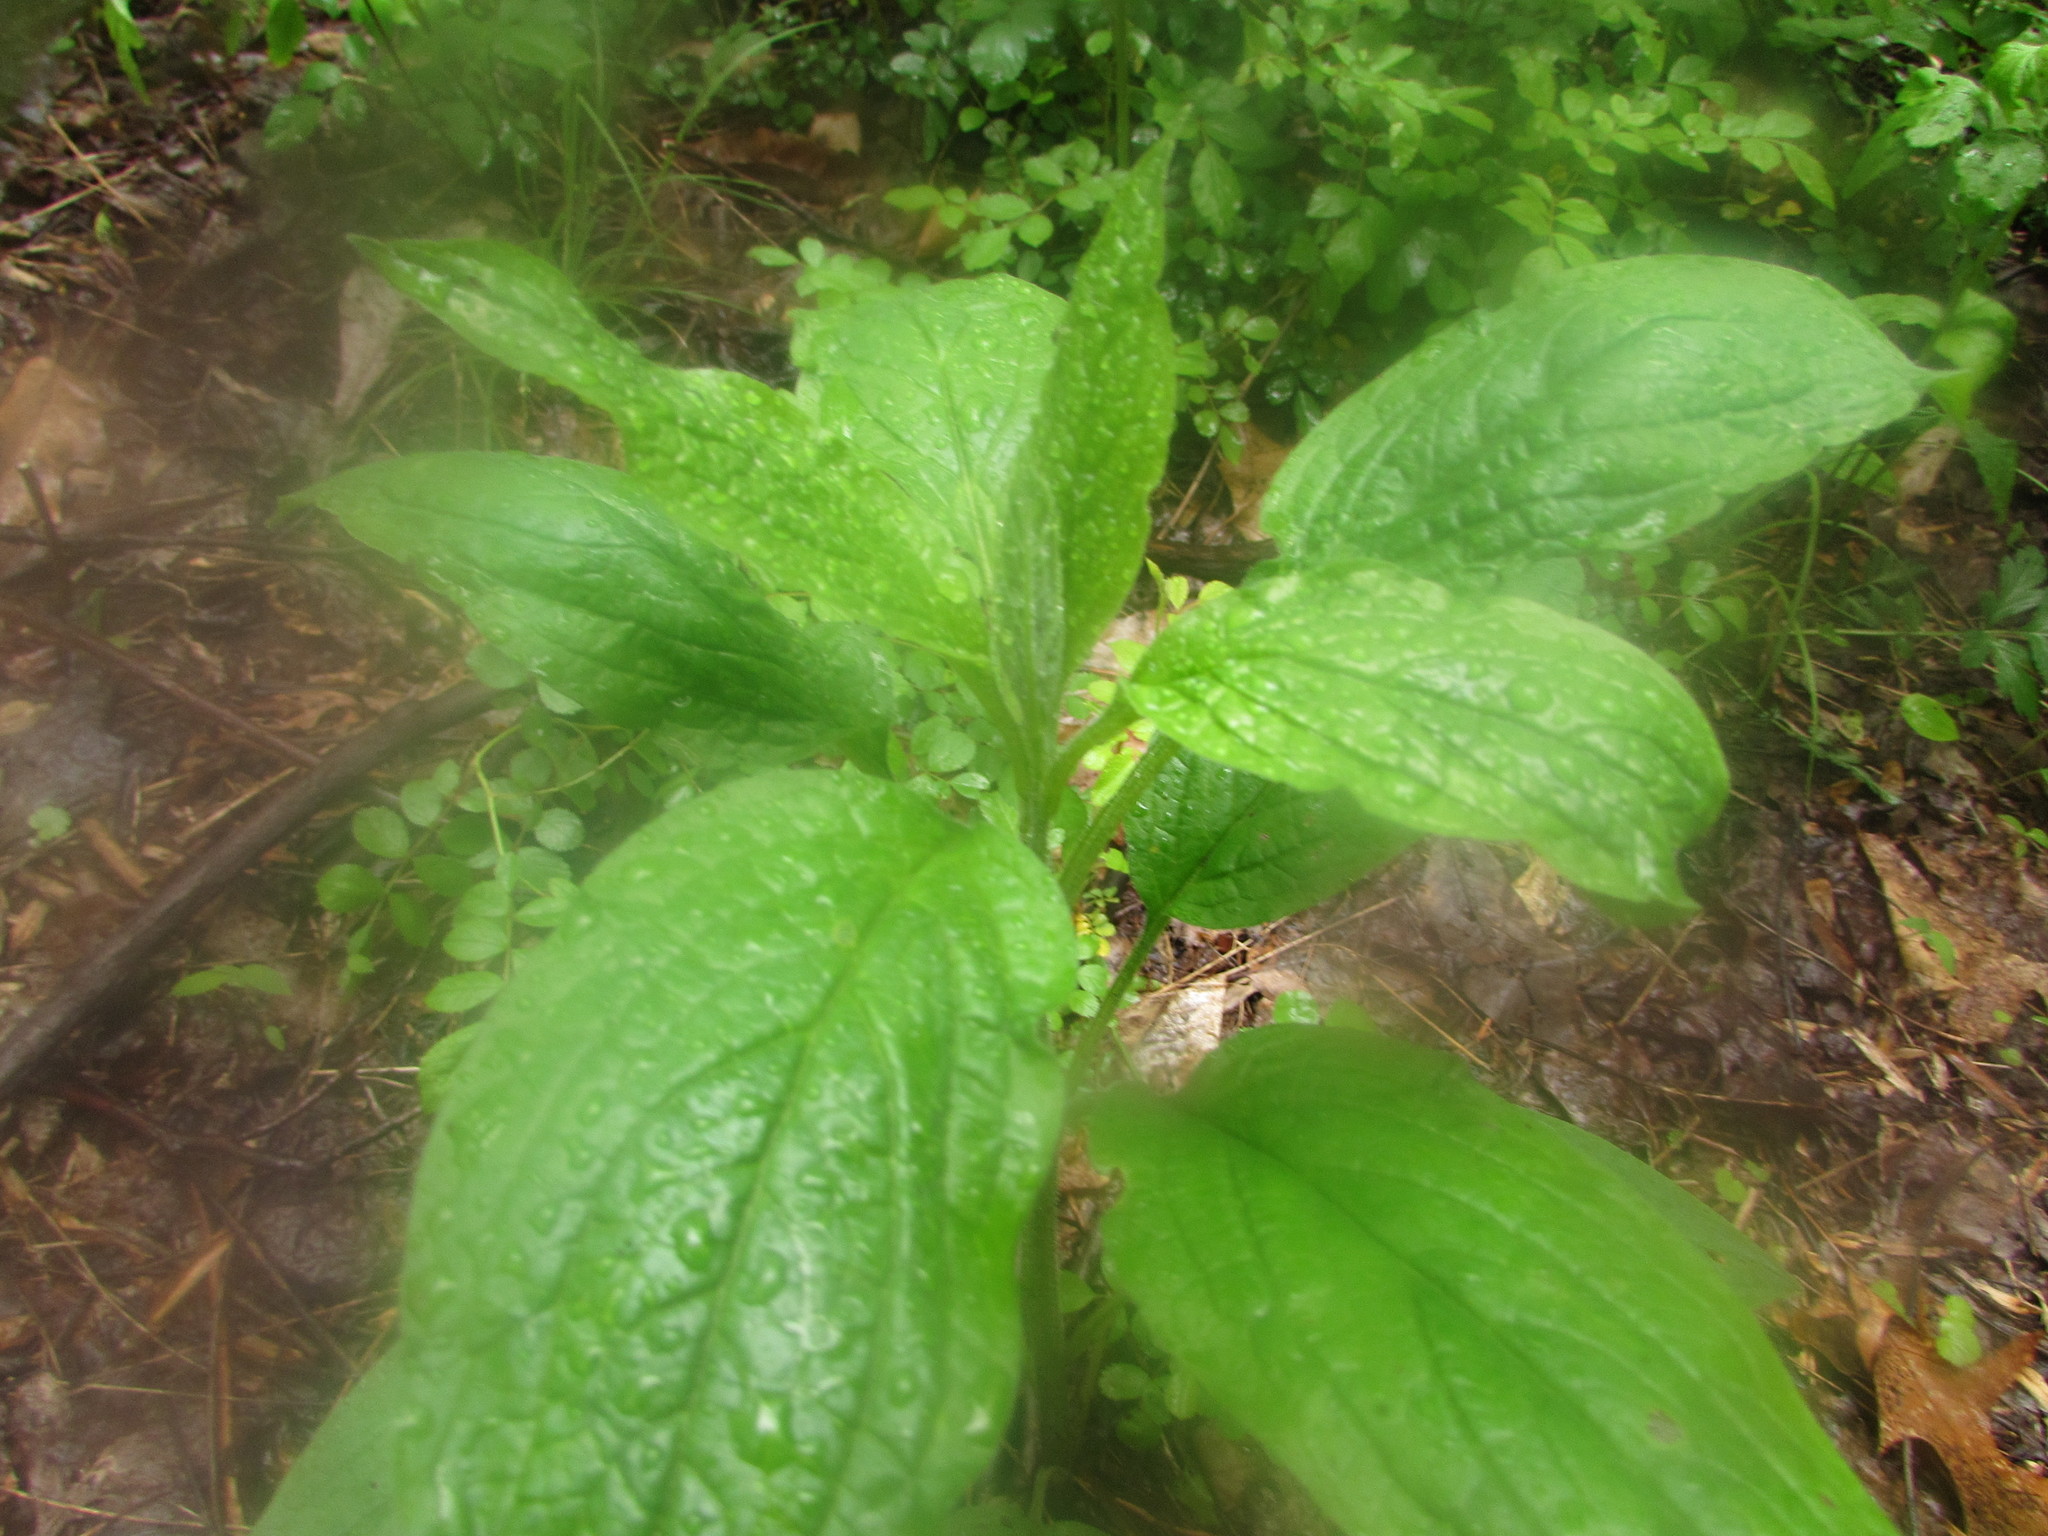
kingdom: Plantae
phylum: Tracheophyta
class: Magnoliopsida
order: Boraginales
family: Boraginaceae
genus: Hackelia
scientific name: Hackelia virginiana
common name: Beggar's-lice
